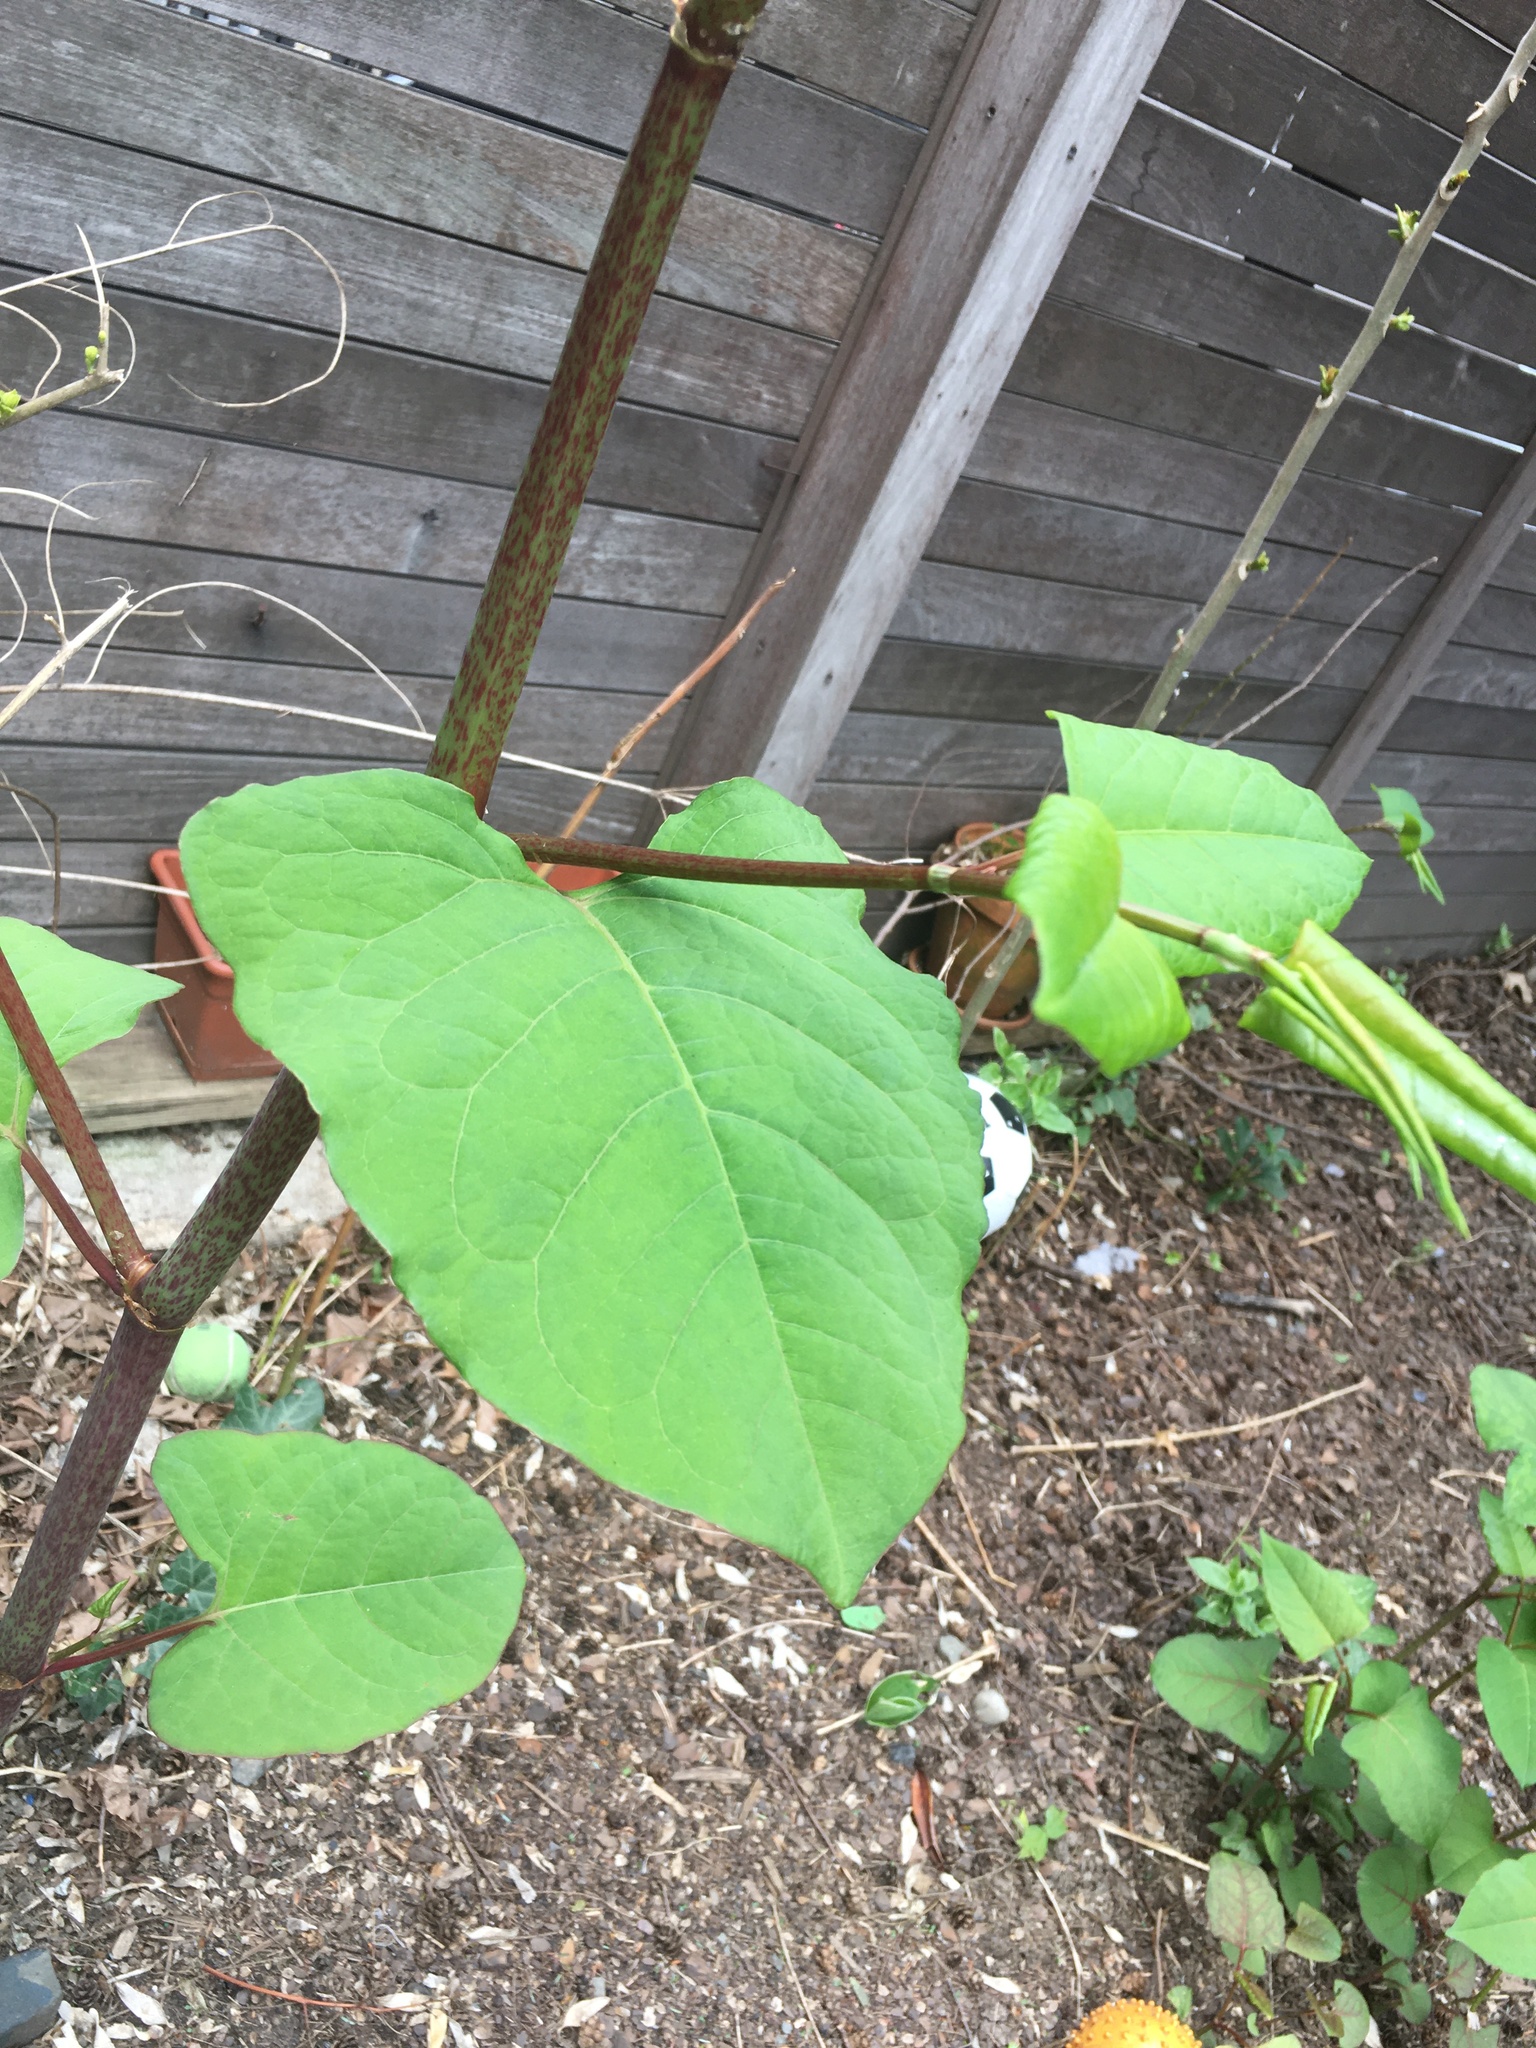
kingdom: Plantae
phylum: Tracheophyta
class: Magnoliopsida
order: Caryophyllales
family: Polygonaceae
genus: Reynoutria
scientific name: Reynoutria japonica
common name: Japanese knotweed
